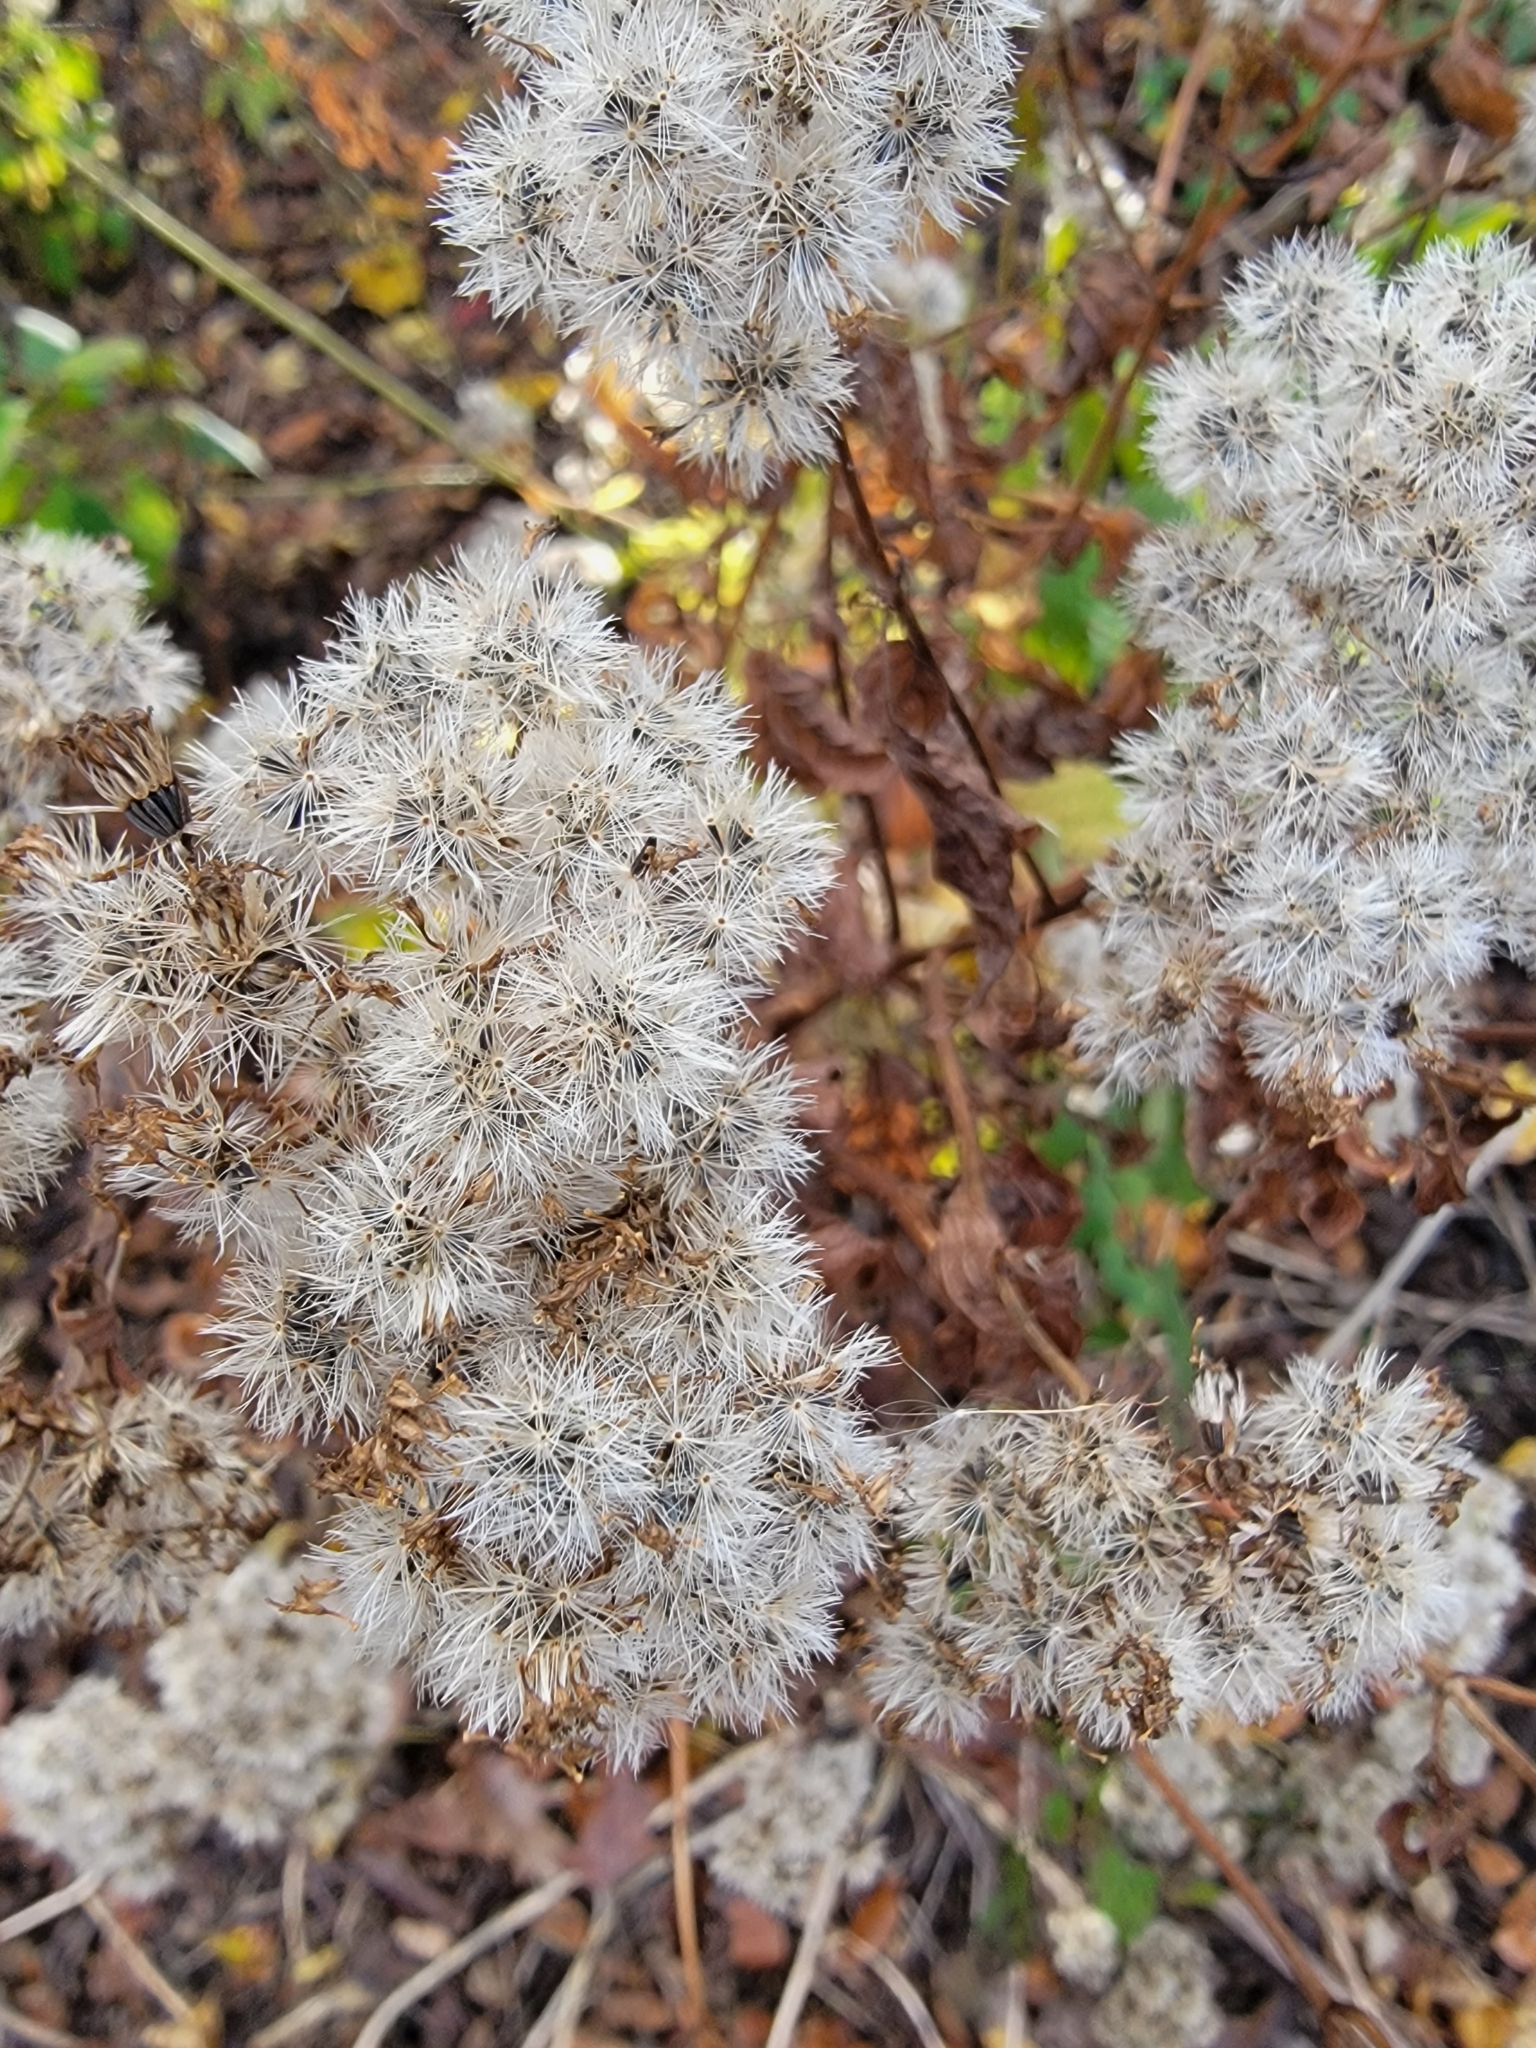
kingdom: Plantae
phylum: Tracheophyta
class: Magnoliopsida
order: Asterales
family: Asteraceae
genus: Ageratina
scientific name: Ageratina altissima
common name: White snakeroot
